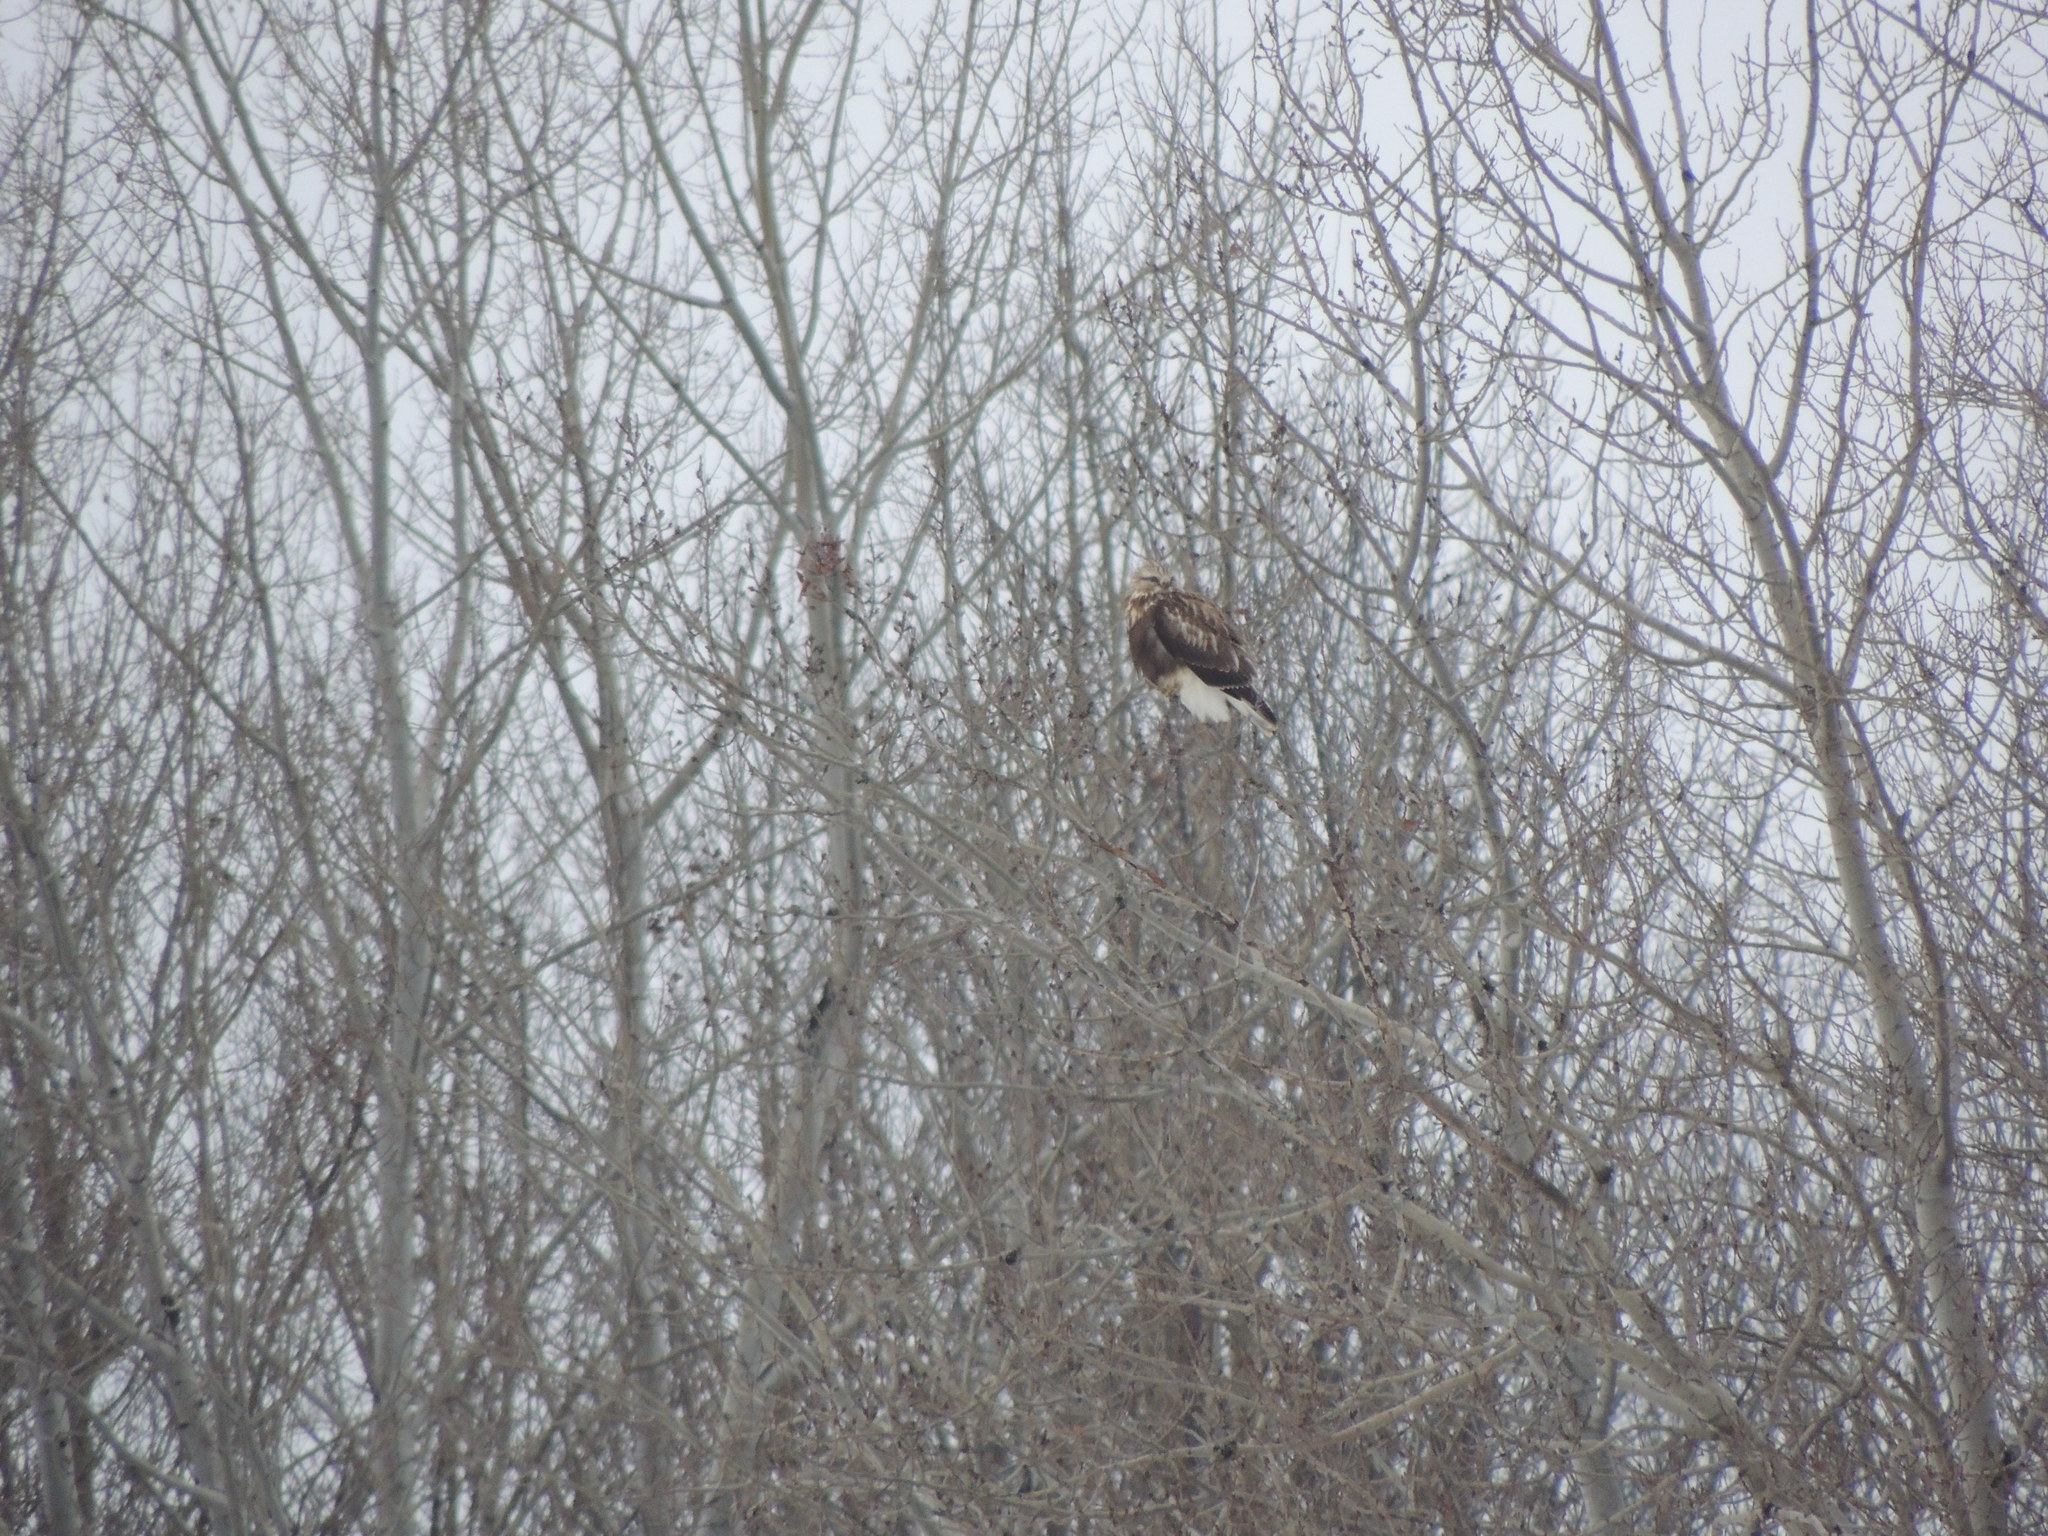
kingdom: Animalia
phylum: Chordata
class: Aves
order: Accipitriformes
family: Accipitridae
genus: Buteo
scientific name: Buteo lagopus
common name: Rough-legged buzzard
